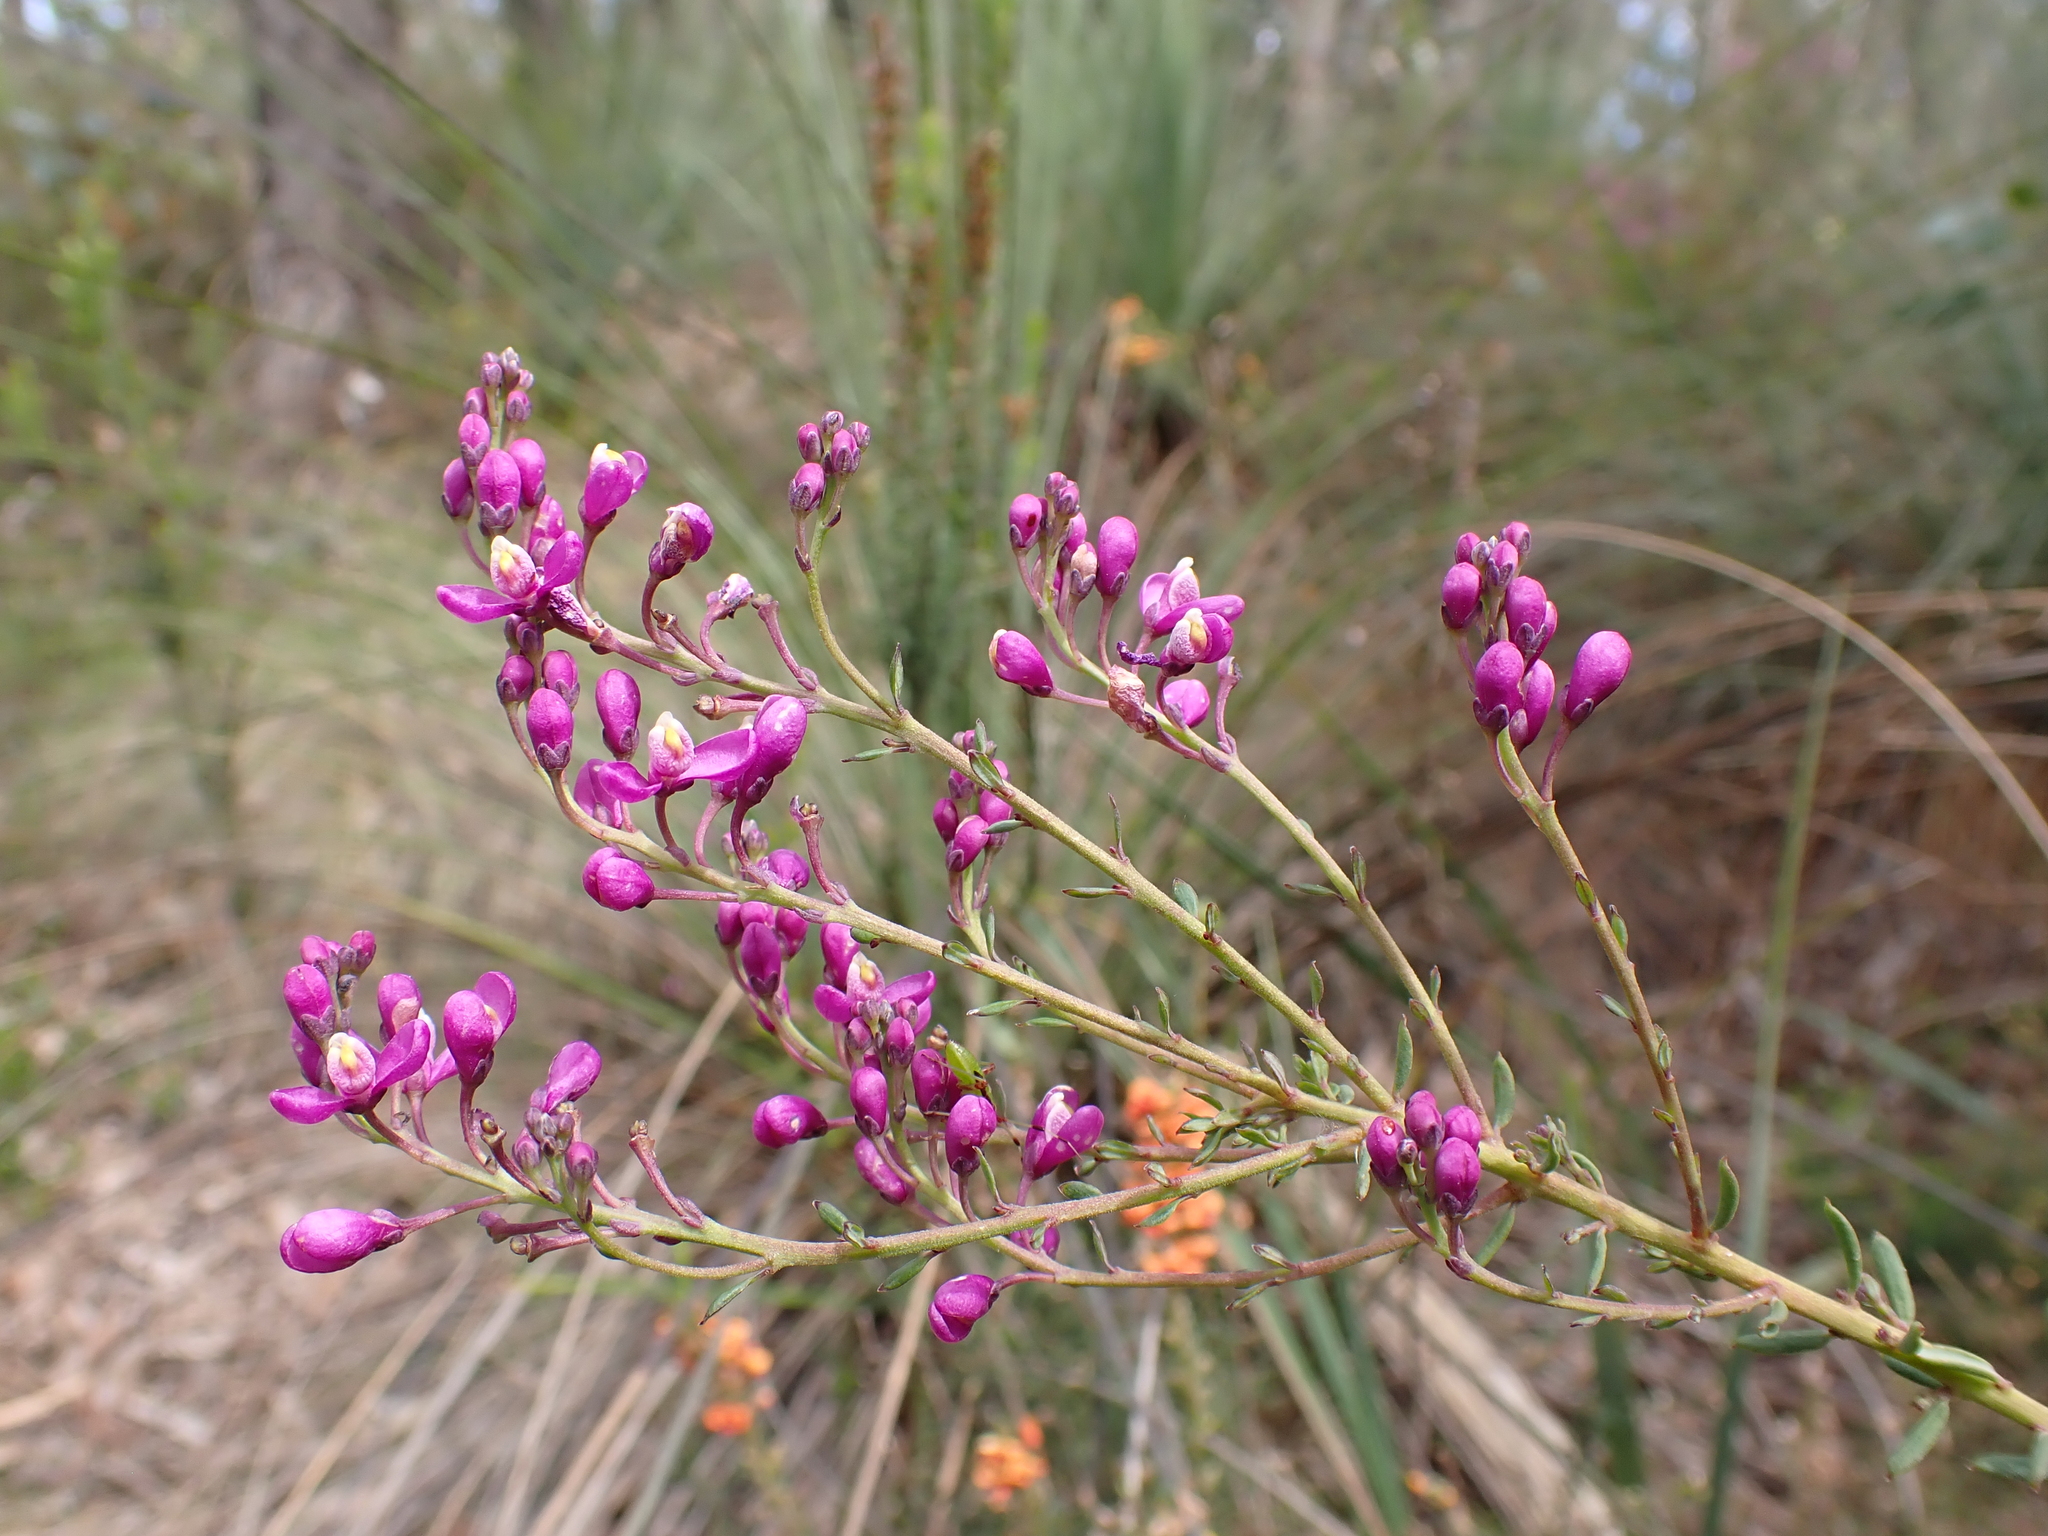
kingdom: Plantae
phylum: Tracheophyta
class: Magnoliopsida
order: Fabales
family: Polygalaceae
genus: Comesperma
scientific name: Comesperma ericinum
